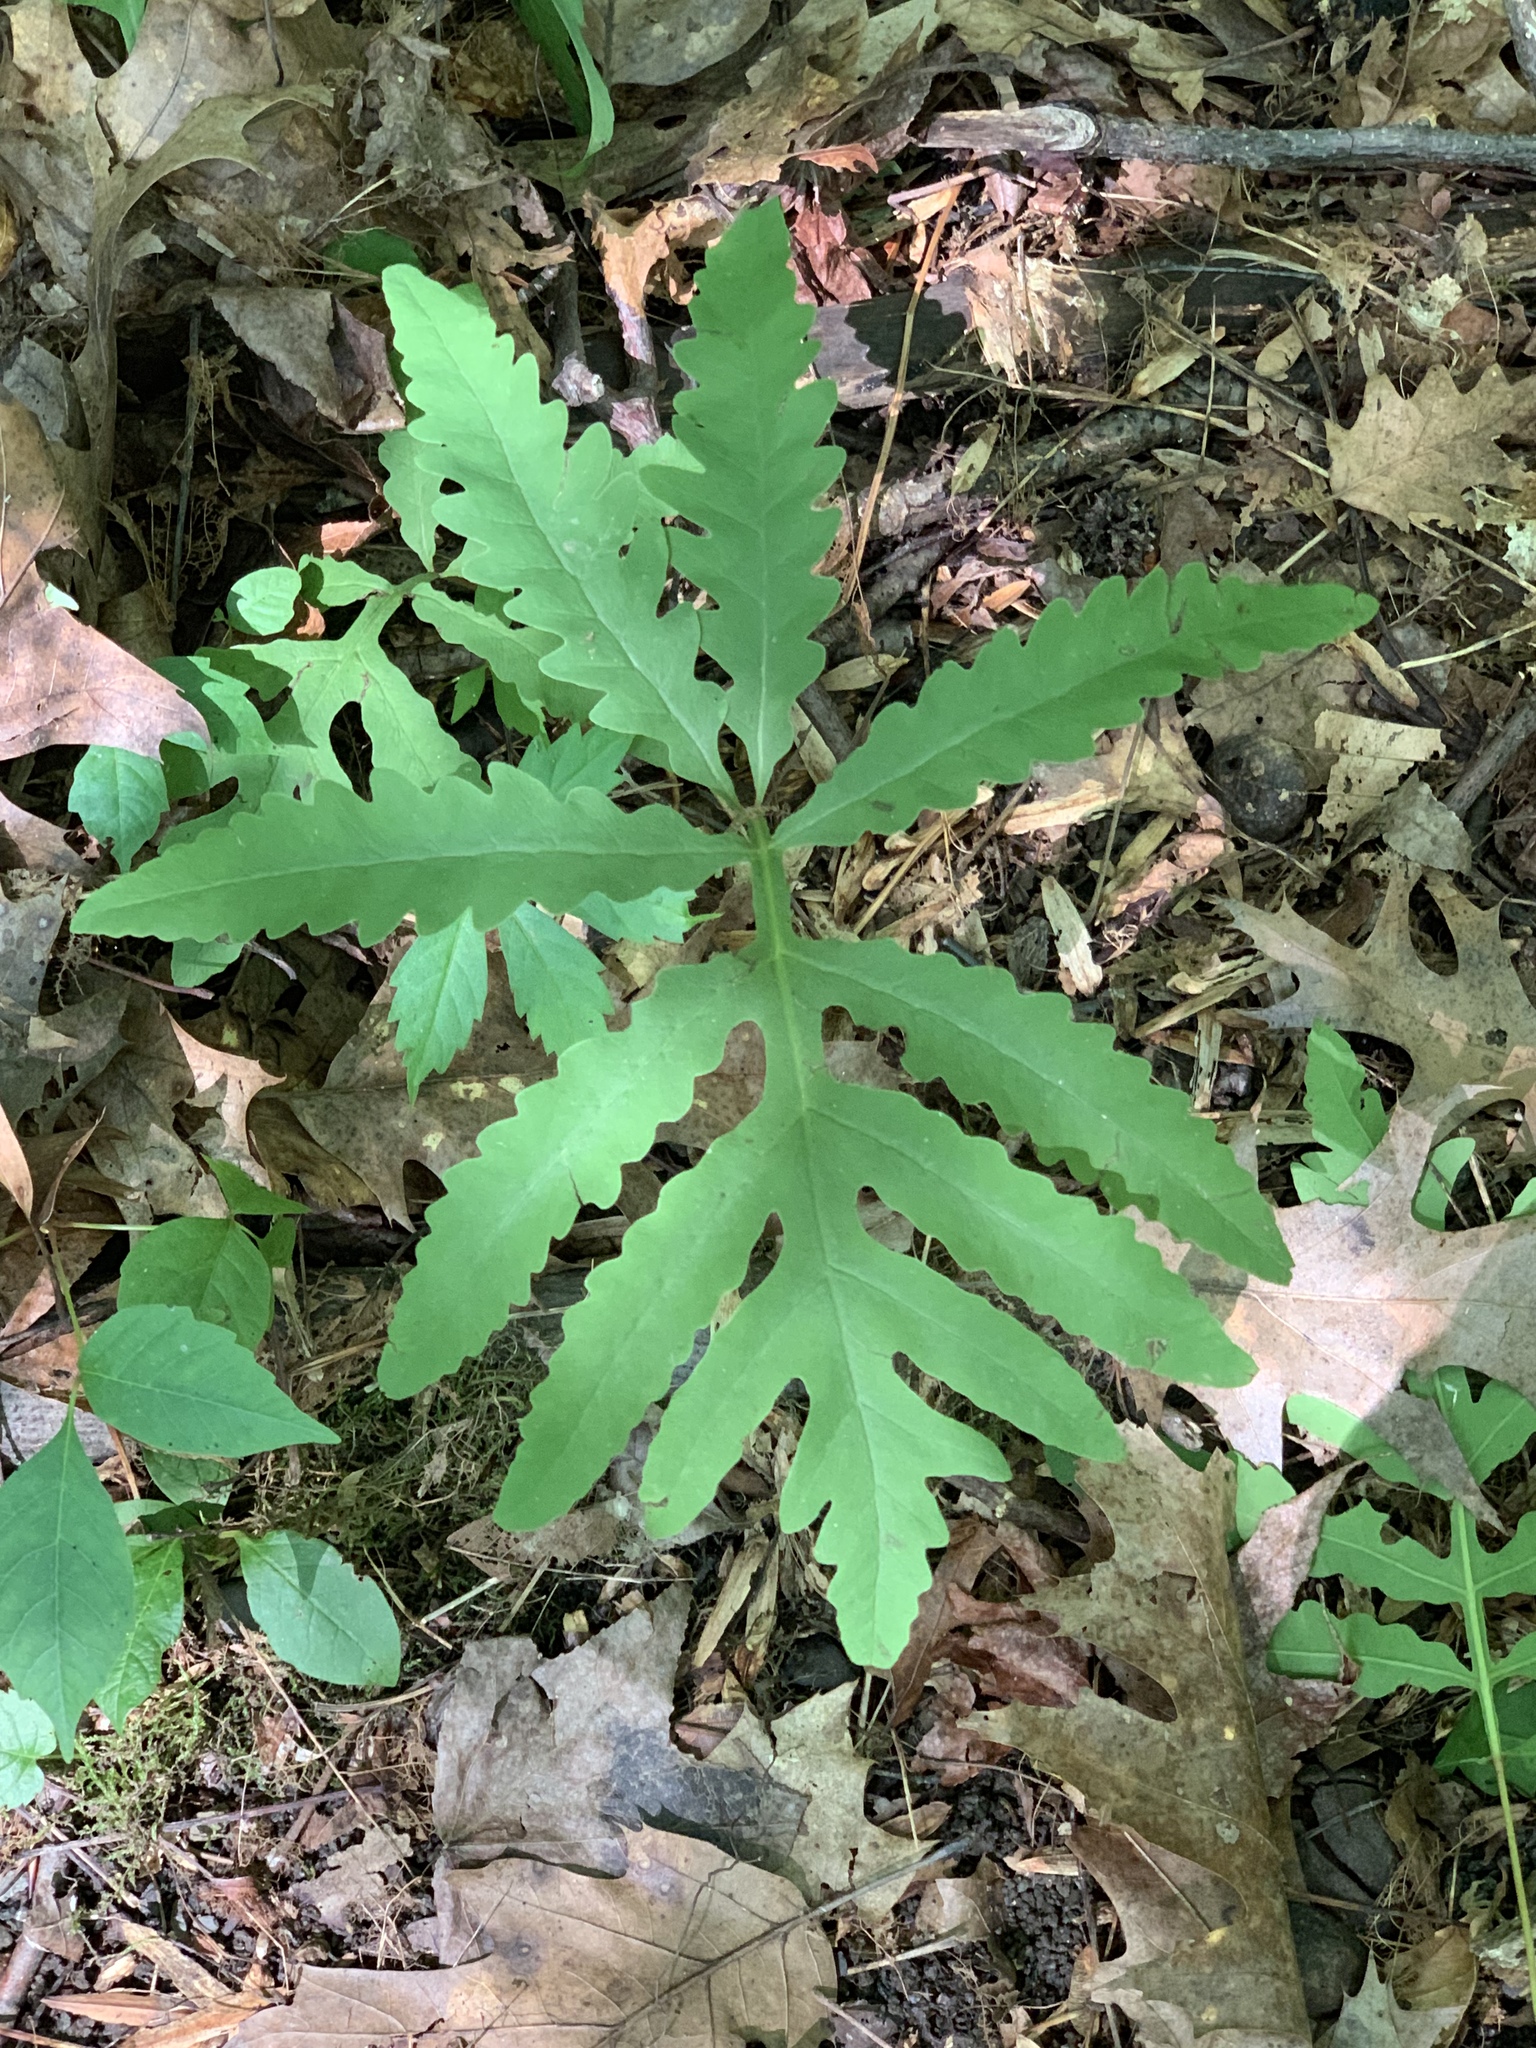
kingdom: Plantae
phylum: Tracheophyta
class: Polypodiopsida
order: Polypodiales
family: Onocleaceae
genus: Onoclea
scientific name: Onoclea sensibilis
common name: Sensitive fern
